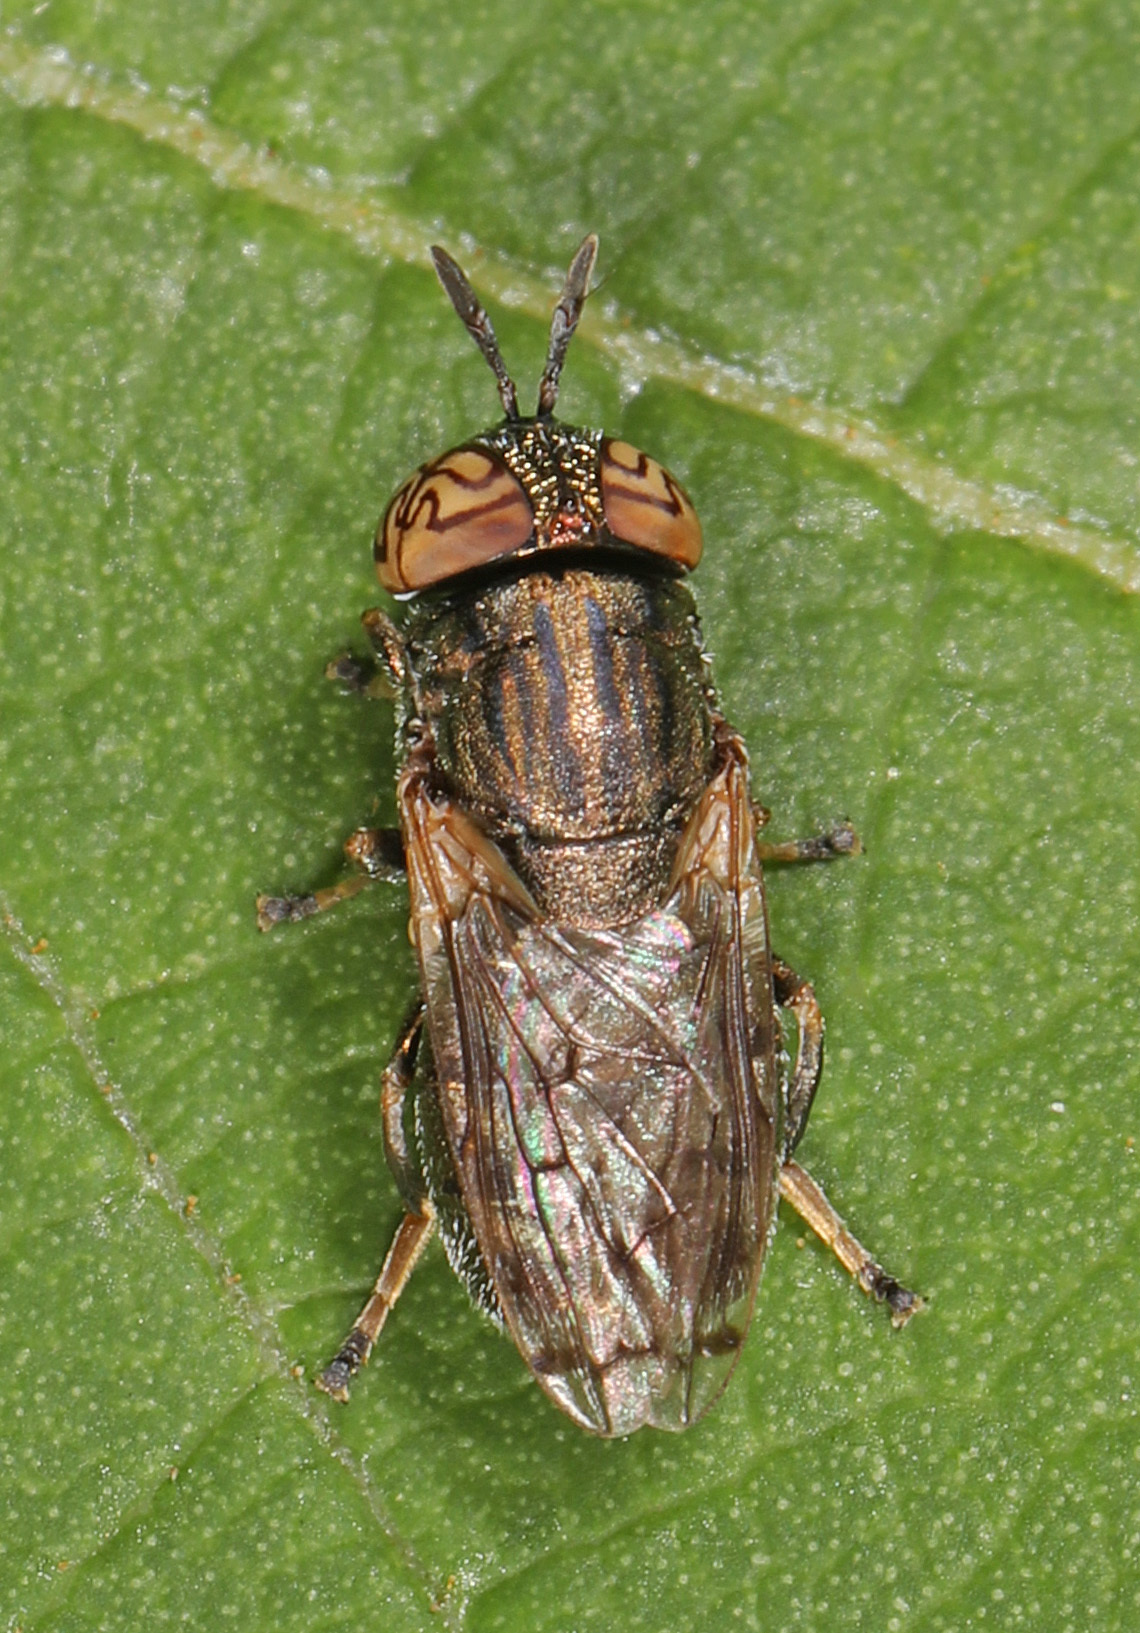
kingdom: Animalia
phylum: Arthropoda
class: Insecta
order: Diptera
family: Syrphidae
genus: Orthonevra
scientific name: Orthonevra nitida
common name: Wavy mucksucker
